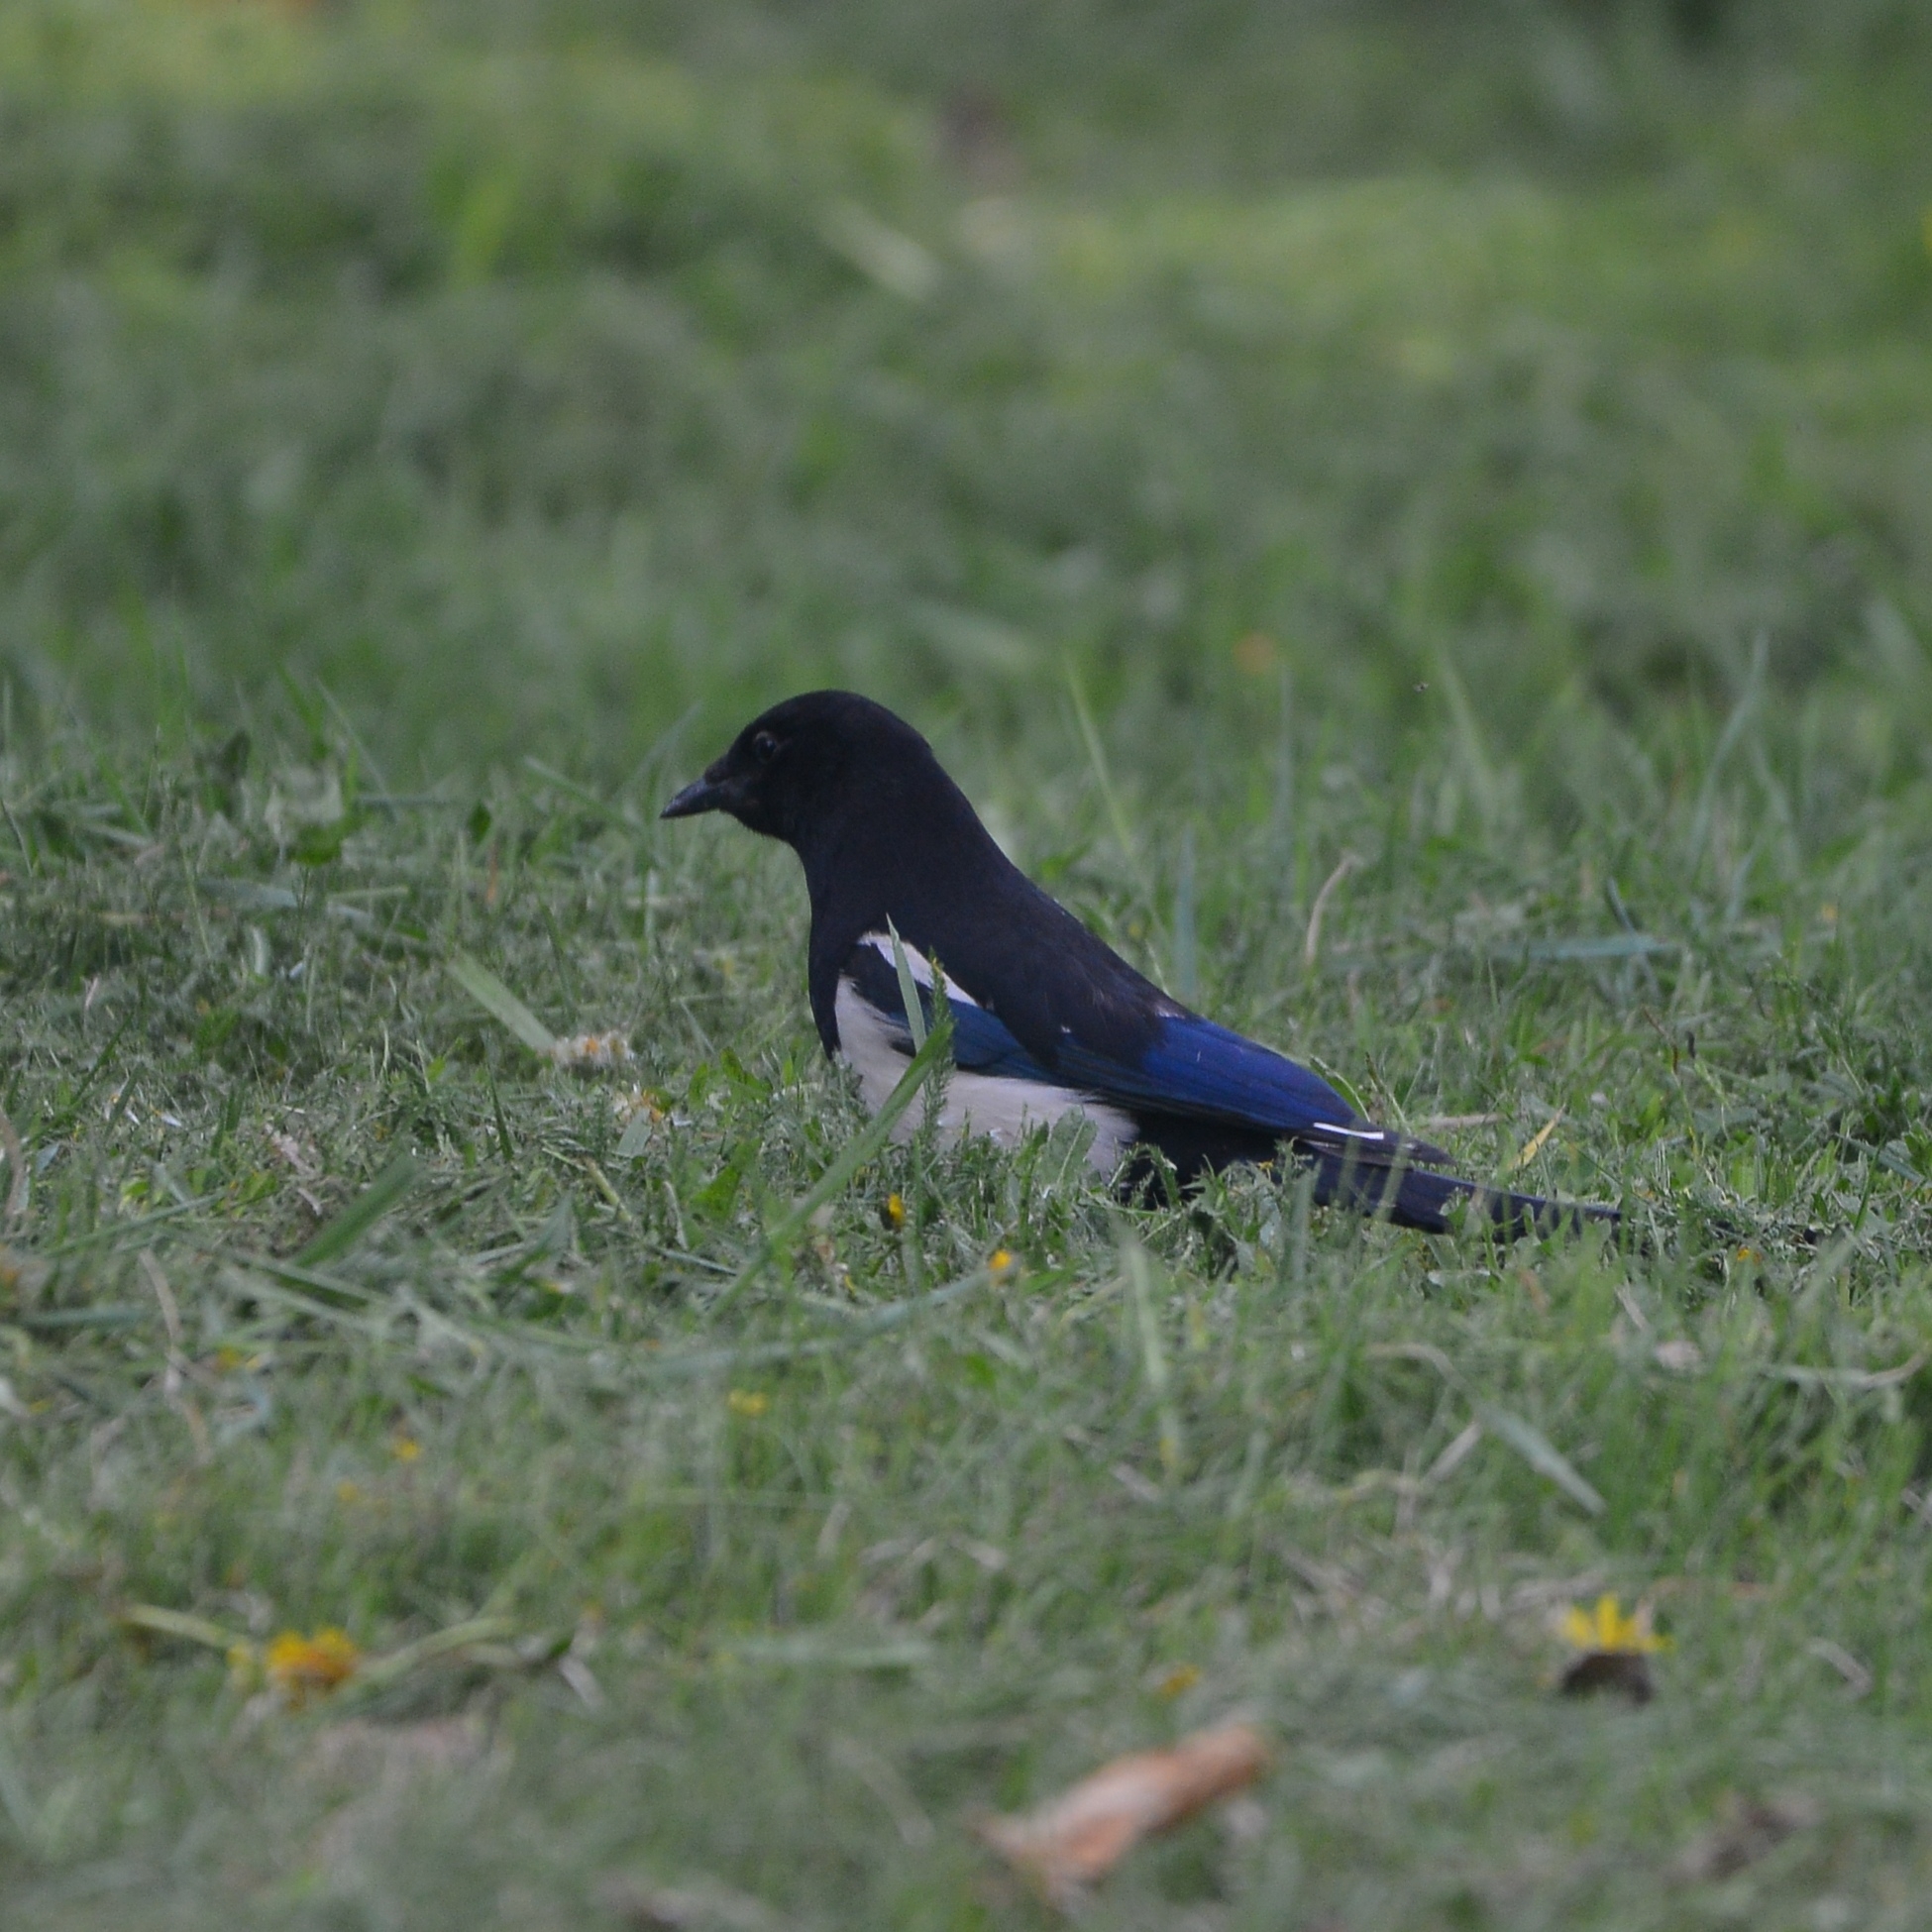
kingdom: Animalia
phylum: Chordata
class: Aves
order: Passeriformes
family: Corvidae
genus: Pica
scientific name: Pica serica
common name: Oriental magpie
